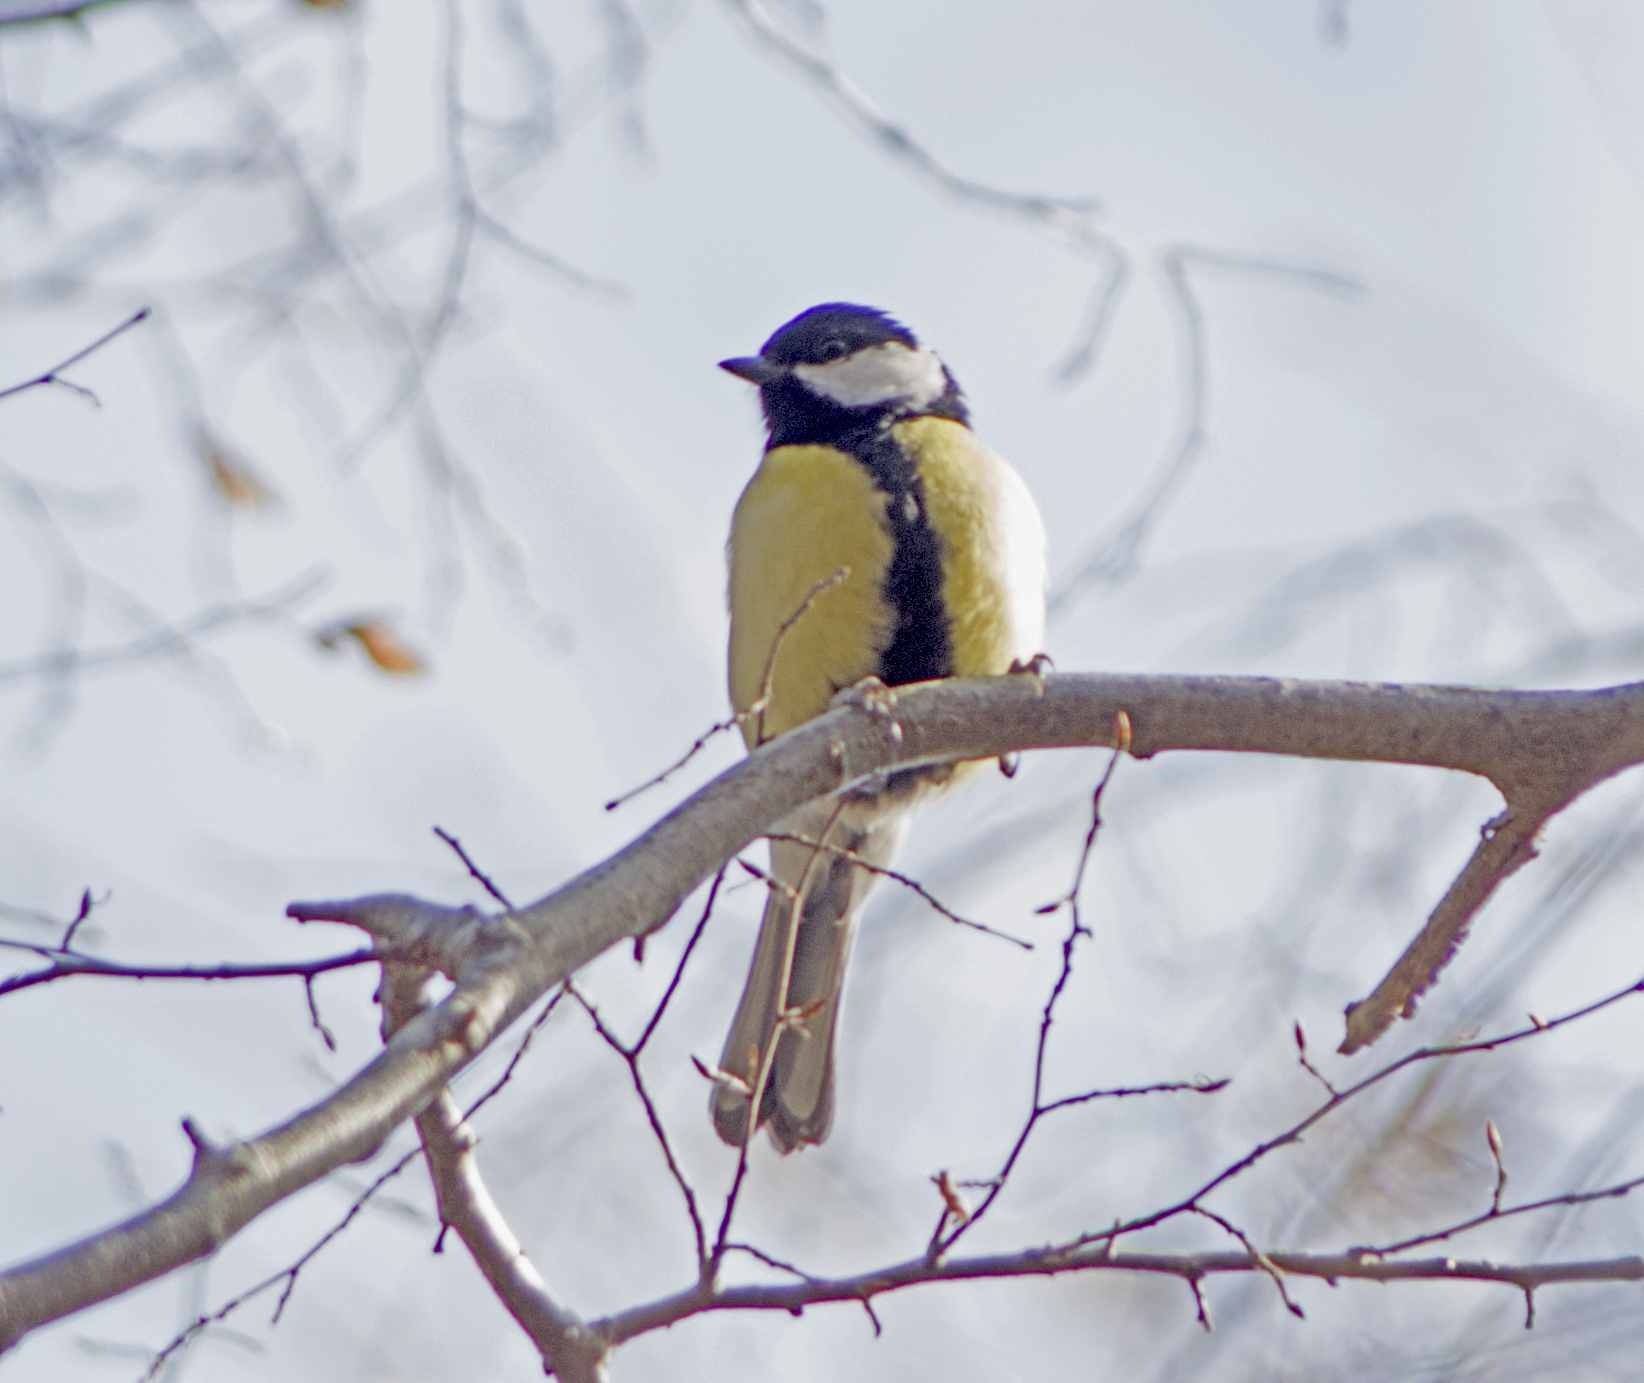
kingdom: Animalia
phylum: Chordata
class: Aves
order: Passeriformes
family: Paridae
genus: Parus
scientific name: Parus major
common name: Great tit
